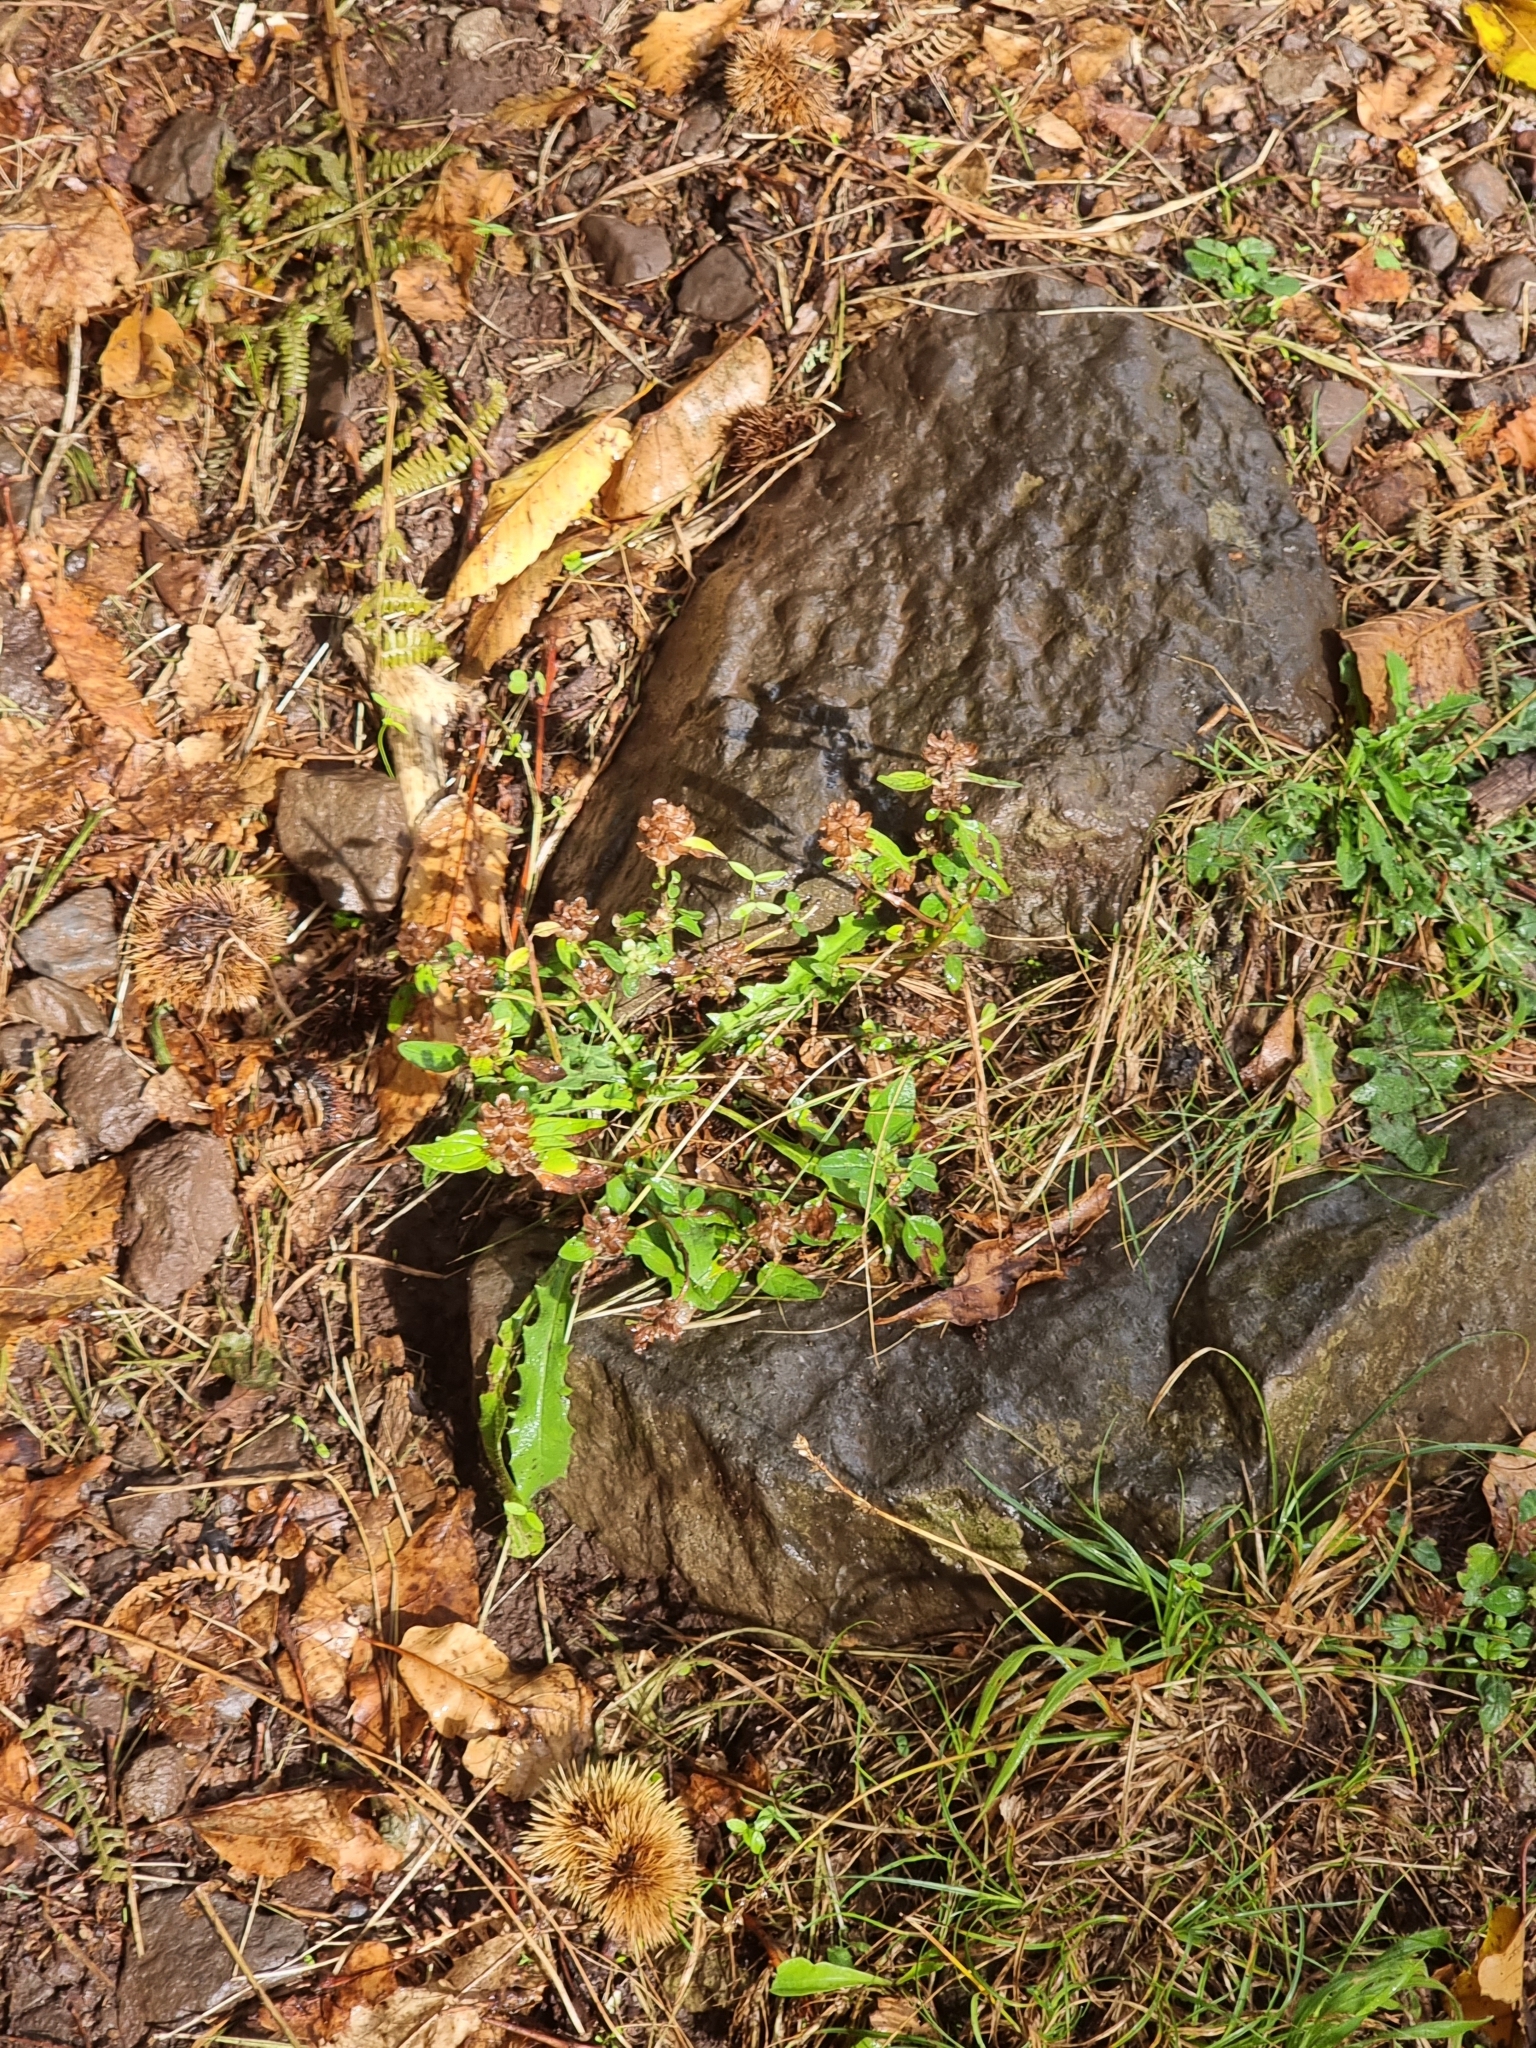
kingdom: Plantae
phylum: Tracheophyta
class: Magnoliopsida
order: Lamiales
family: Lamiaceae
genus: Prunella
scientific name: Prunella vulgaris
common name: Heal-all
